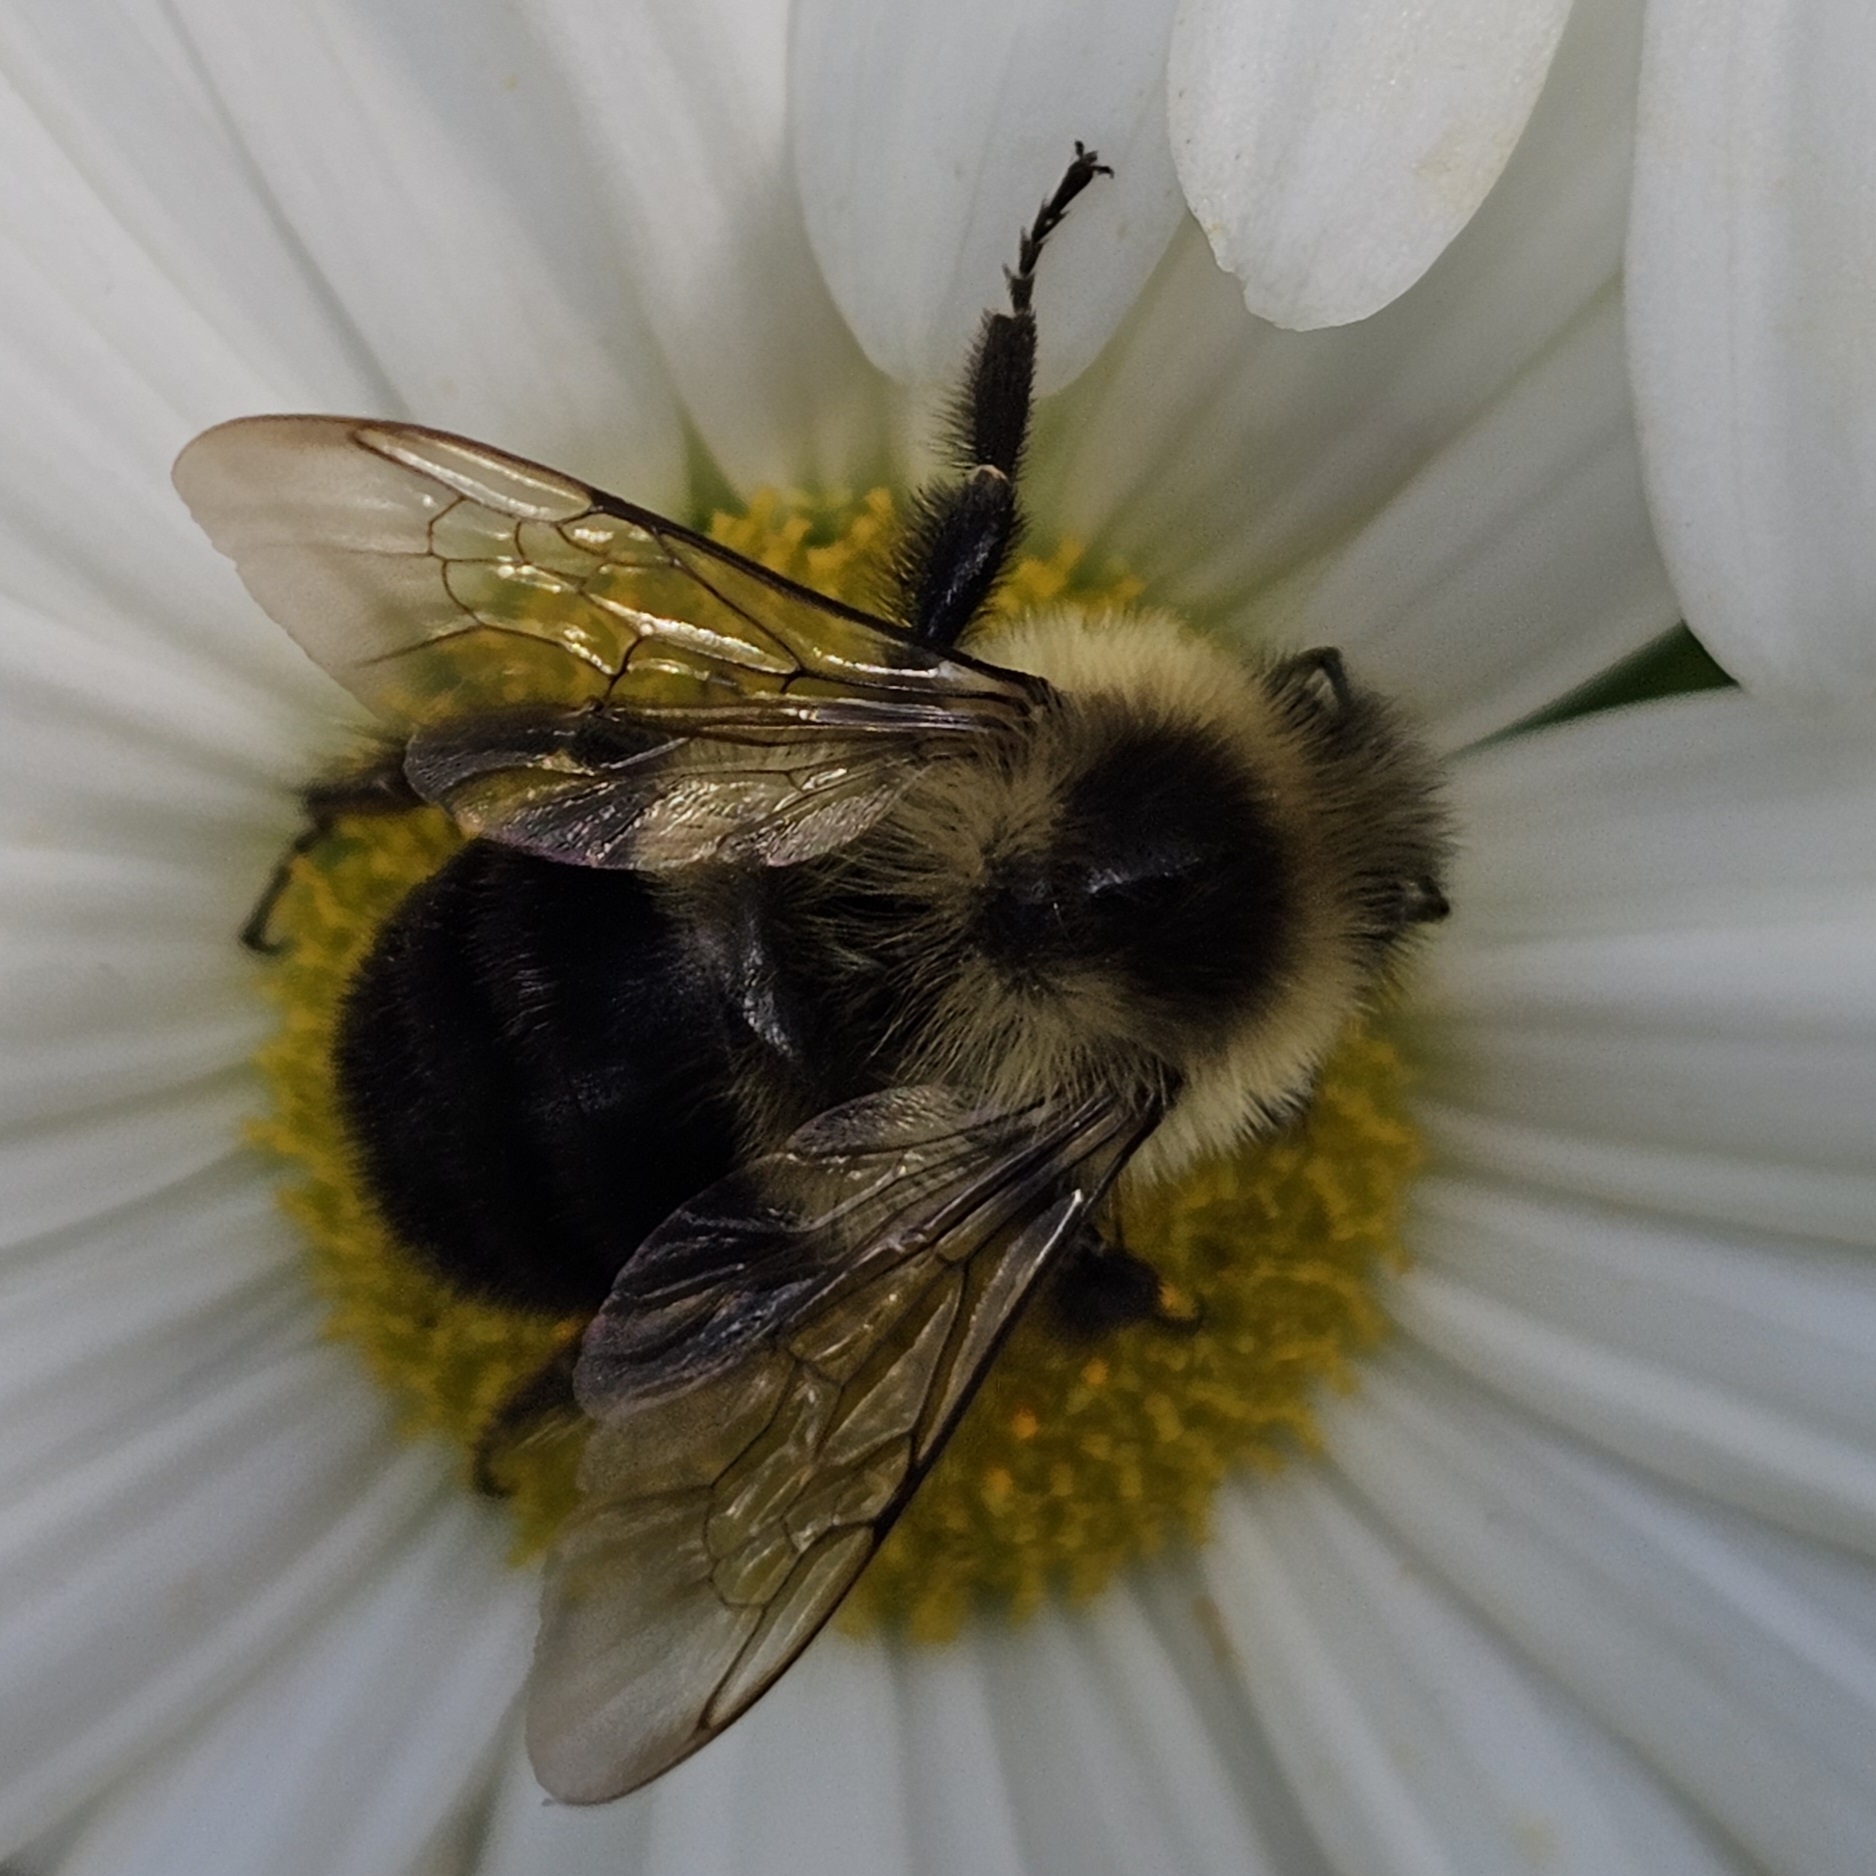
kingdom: Animalia
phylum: Arthropoda
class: Insecta
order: Hymenoptera
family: Apidae
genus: Bombus
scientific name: Bombus impatiens
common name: Common eastern bumble bee
